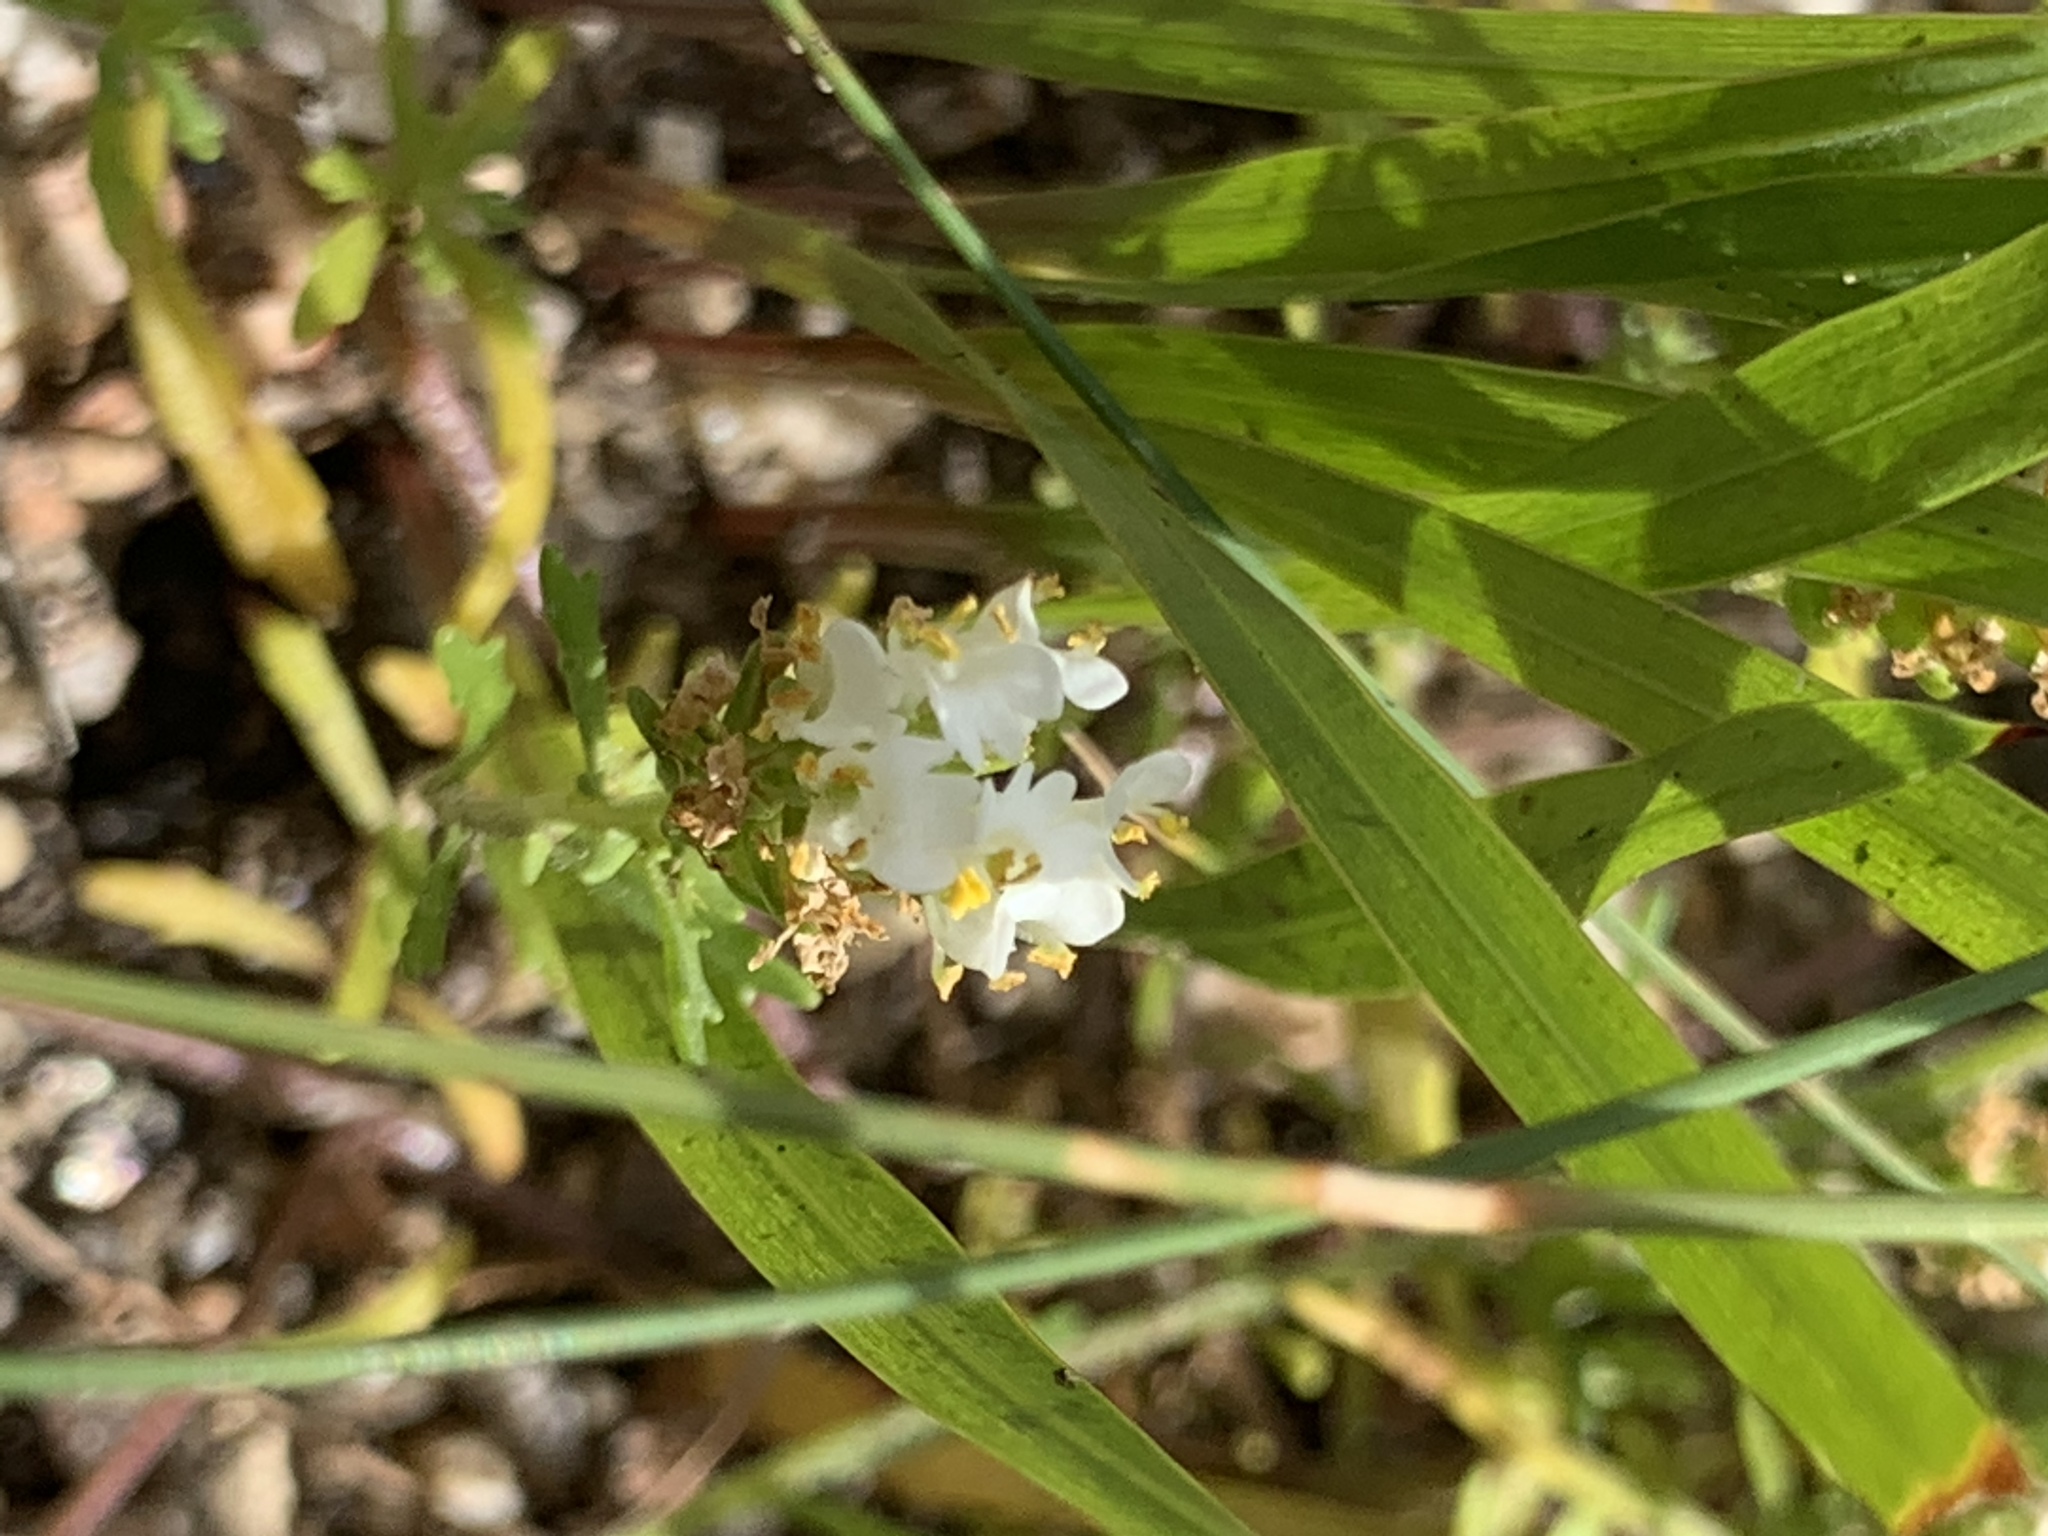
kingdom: Plantae
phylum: Tracheophyta
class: Magnoliopsida
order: Lamiales
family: Scrophulariaceae
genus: Hebenstretia
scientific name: Hebenstretia repens
